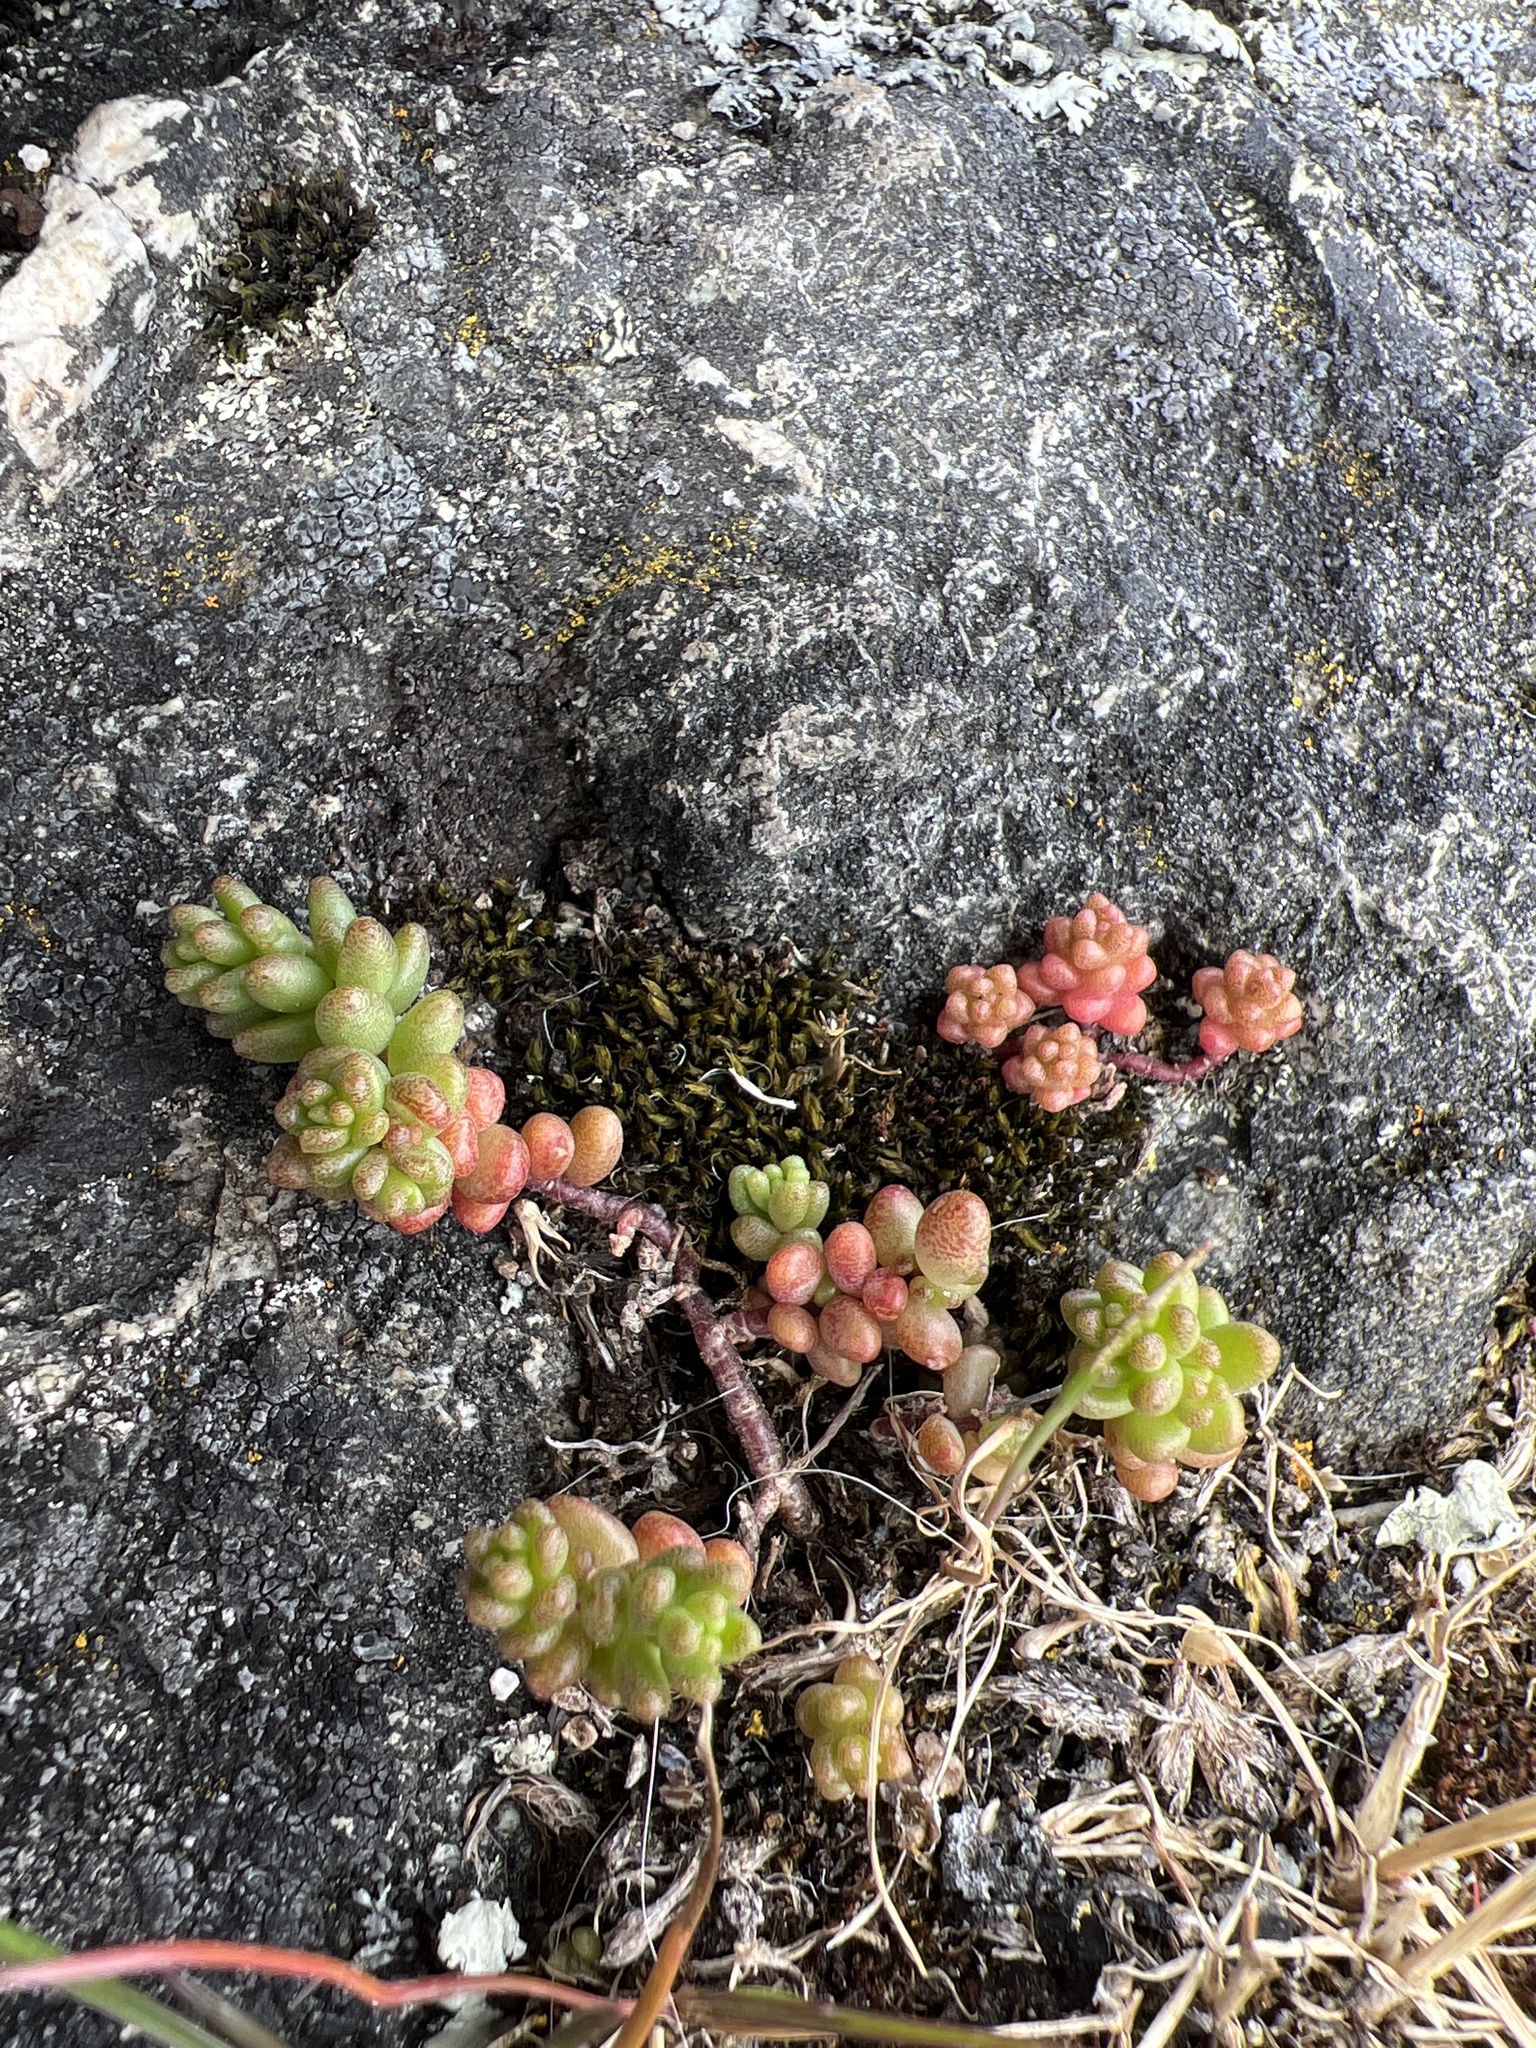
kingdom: Plantae
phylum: Tracheophyta
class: Magnoliopsida
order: Saxifragales
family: Crassulaceae
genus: Sedum
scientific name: Sedum album
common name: White stonecrop
